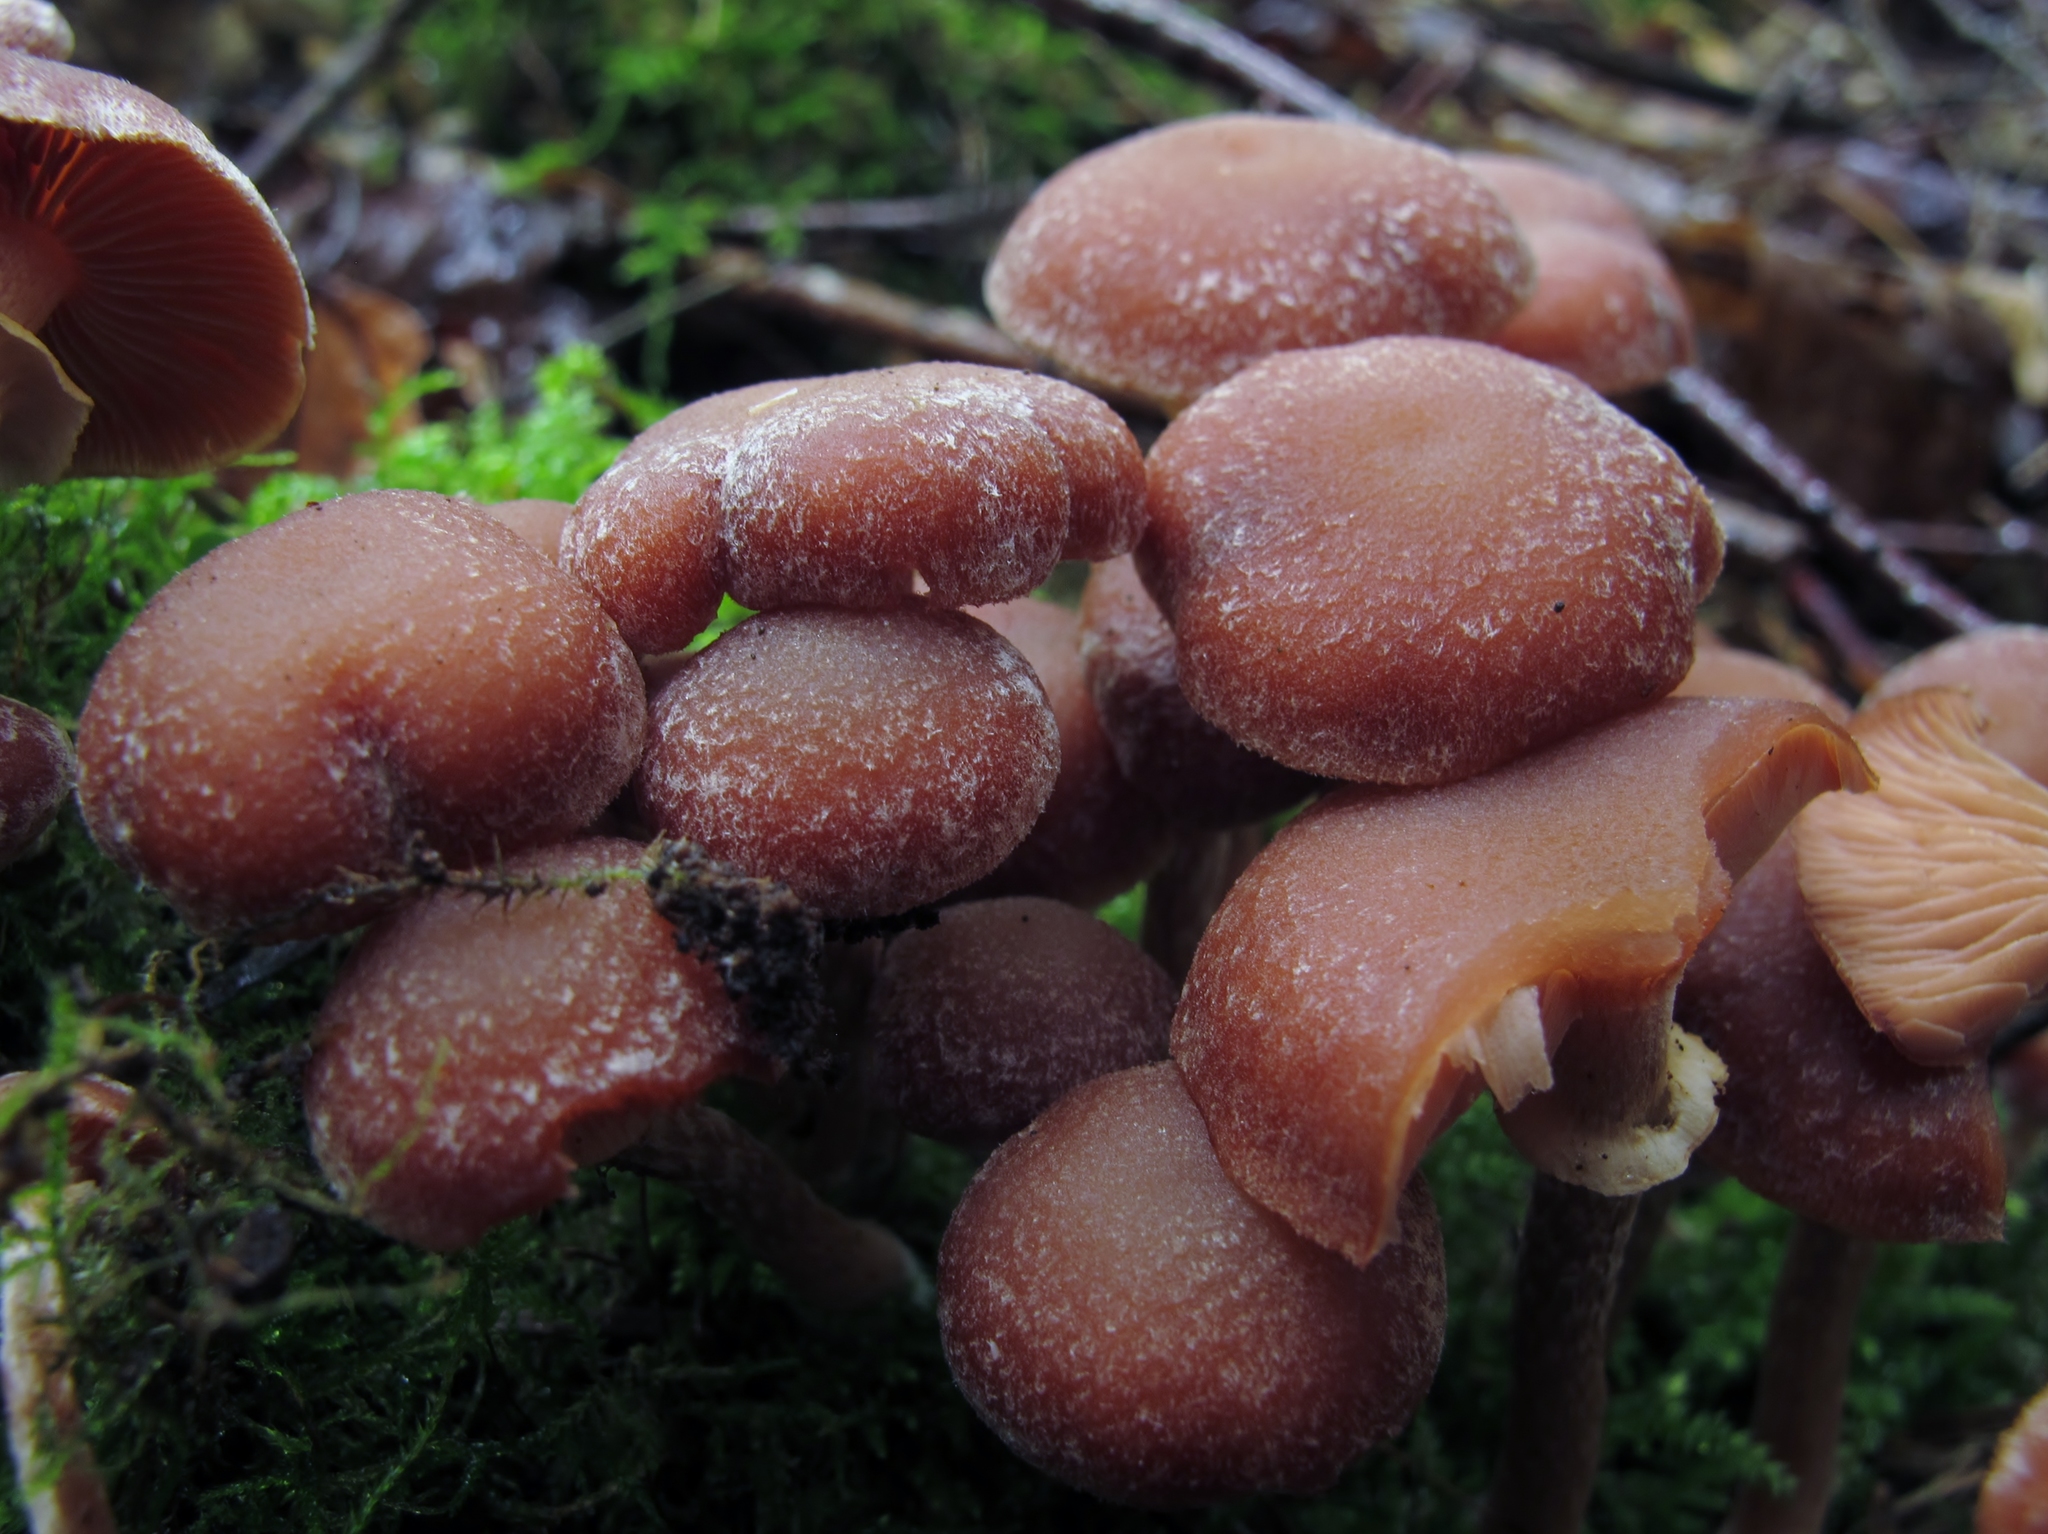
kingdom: Fungi
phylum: Basidiomycota
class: Agaricomycetes
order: Agaricales
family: Tubariaceae
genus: Tubaria
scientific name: Tubaria confragosa
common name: Ringed twiglet
